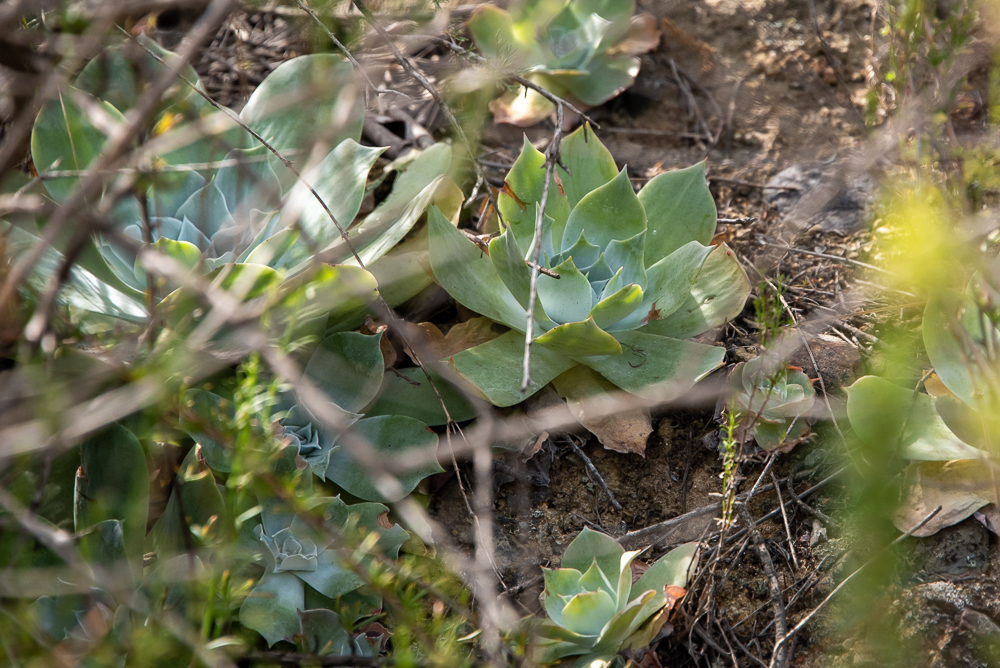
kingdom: Plantae
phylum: Tracheophyta
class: Magnoliopsida
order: Saxifragales
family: Crassulaceae
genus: Dudleya
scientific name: Dudleya pulverulenta
